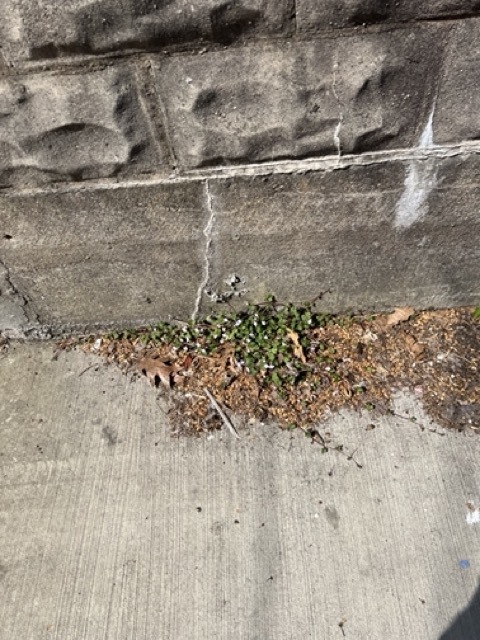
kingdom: Plantae
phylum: Tracheophyta
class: Magnoliopsida
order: Lamiales
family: Plantaginaceae
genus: Cymbalaria
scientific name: Cymbalaria muralis
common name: Ivy-leaved toadflax
